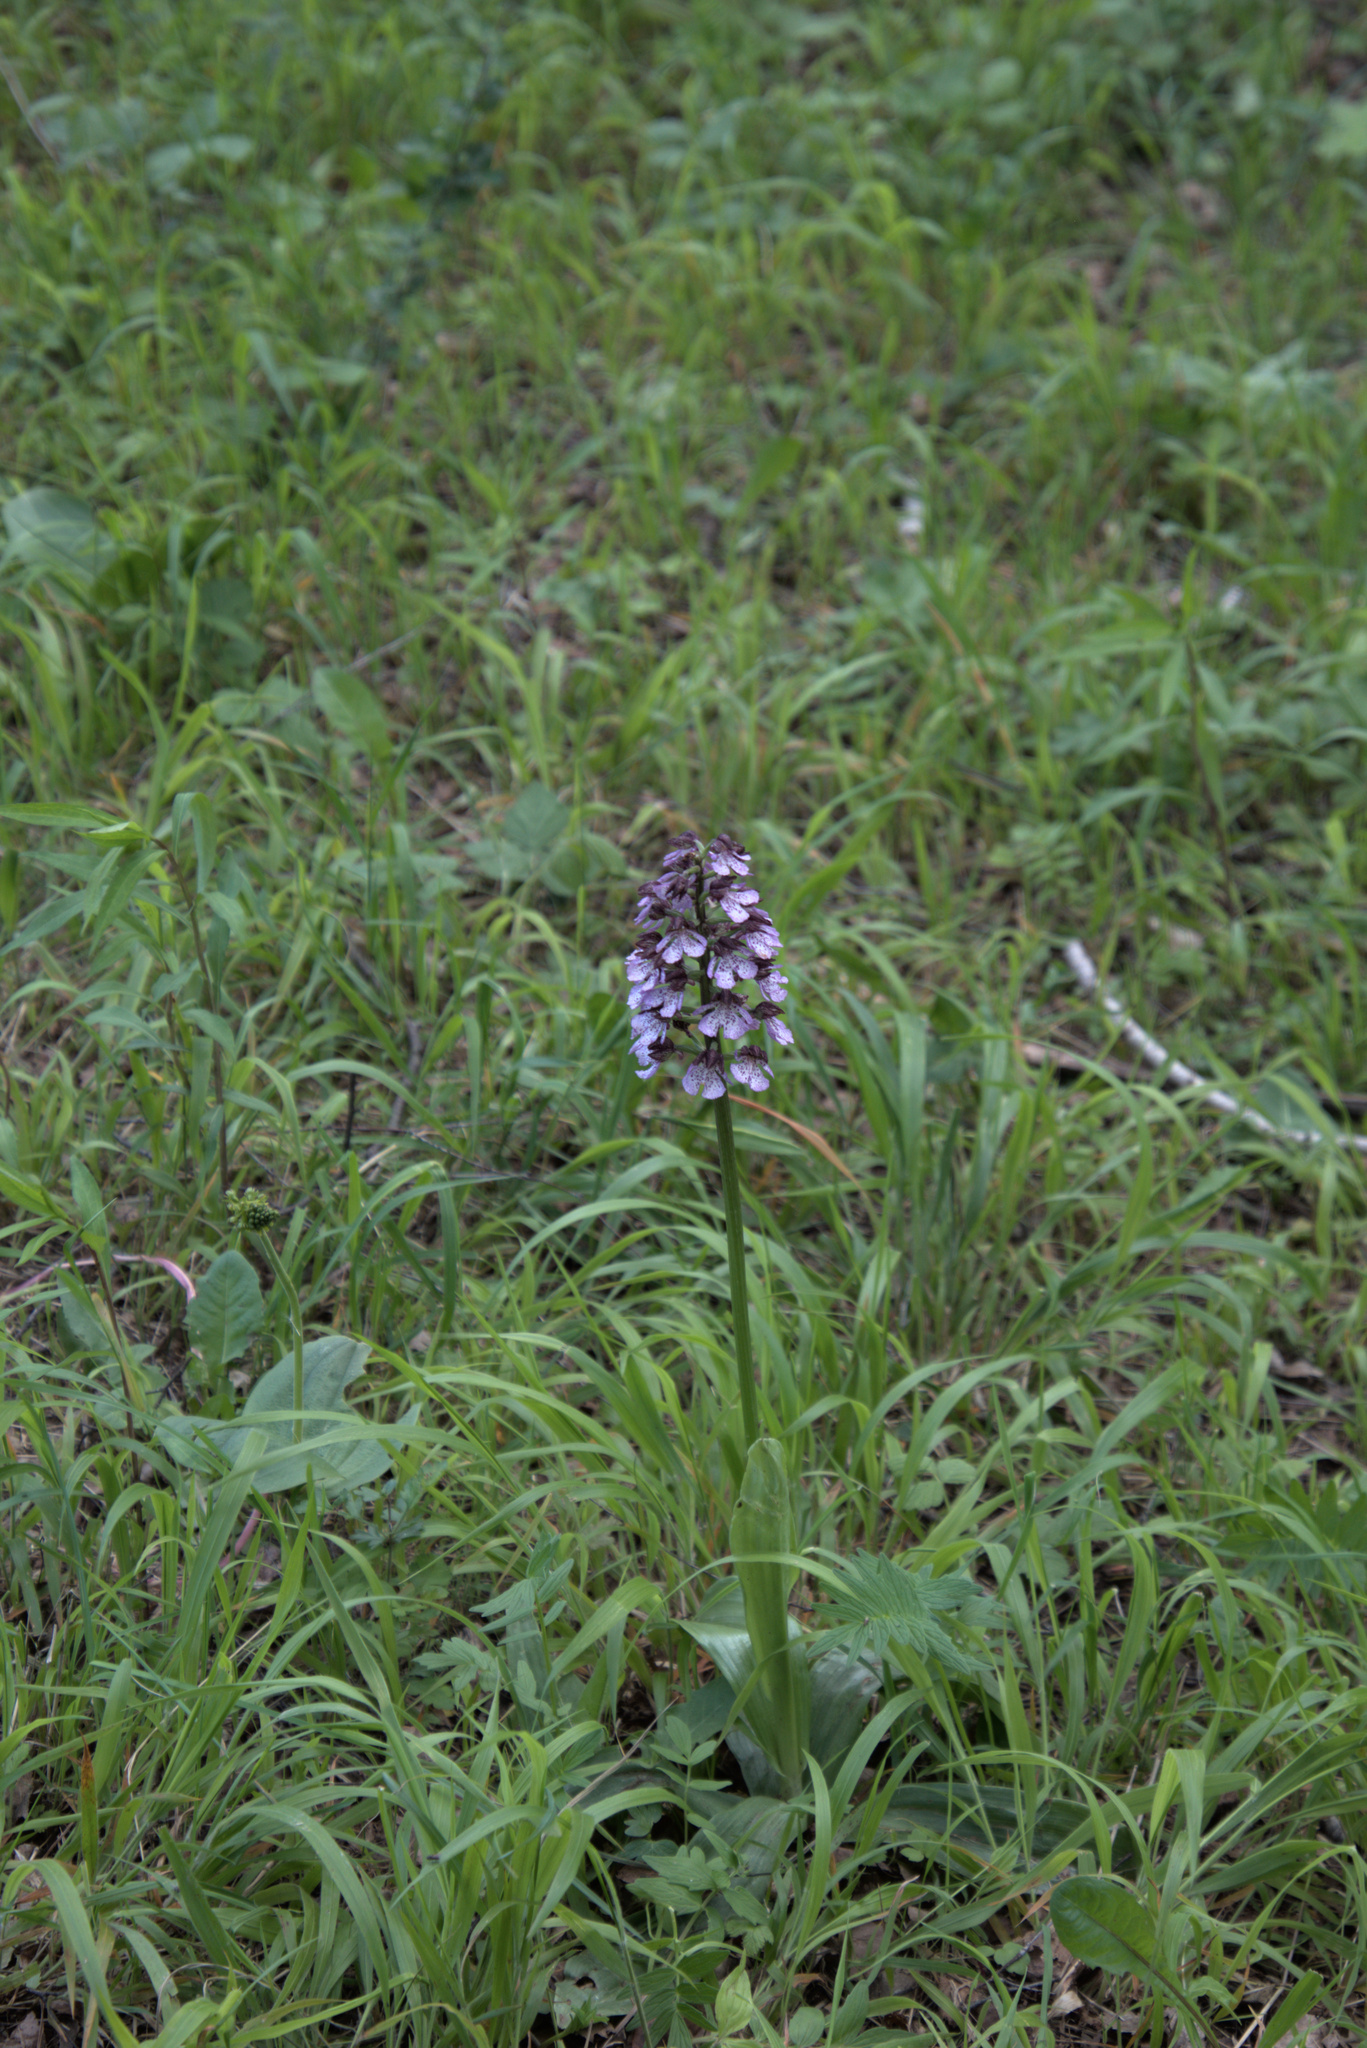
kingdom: Plantae
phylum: Tracheophyta
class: Liliopsida
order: Asparagales
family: Orchidaceae
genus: Orchis
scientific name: Orchis purpurea
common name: Lady orchid
